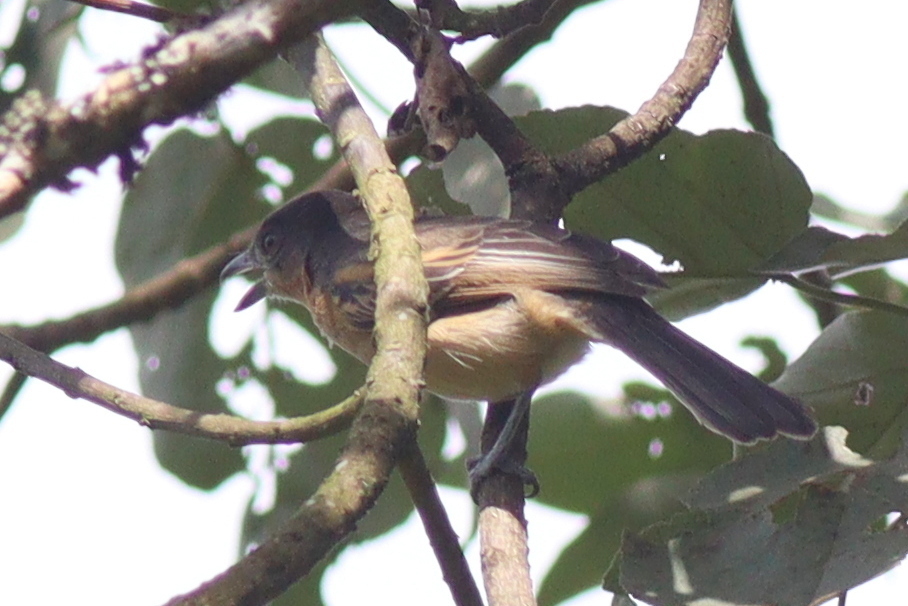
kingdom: Animalia
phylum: Chordata
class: Aves
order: Passeriformes
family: Malaconotidae
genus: Dryoscopus
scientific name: Dryoscopus gambensis
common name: Northern puffback
